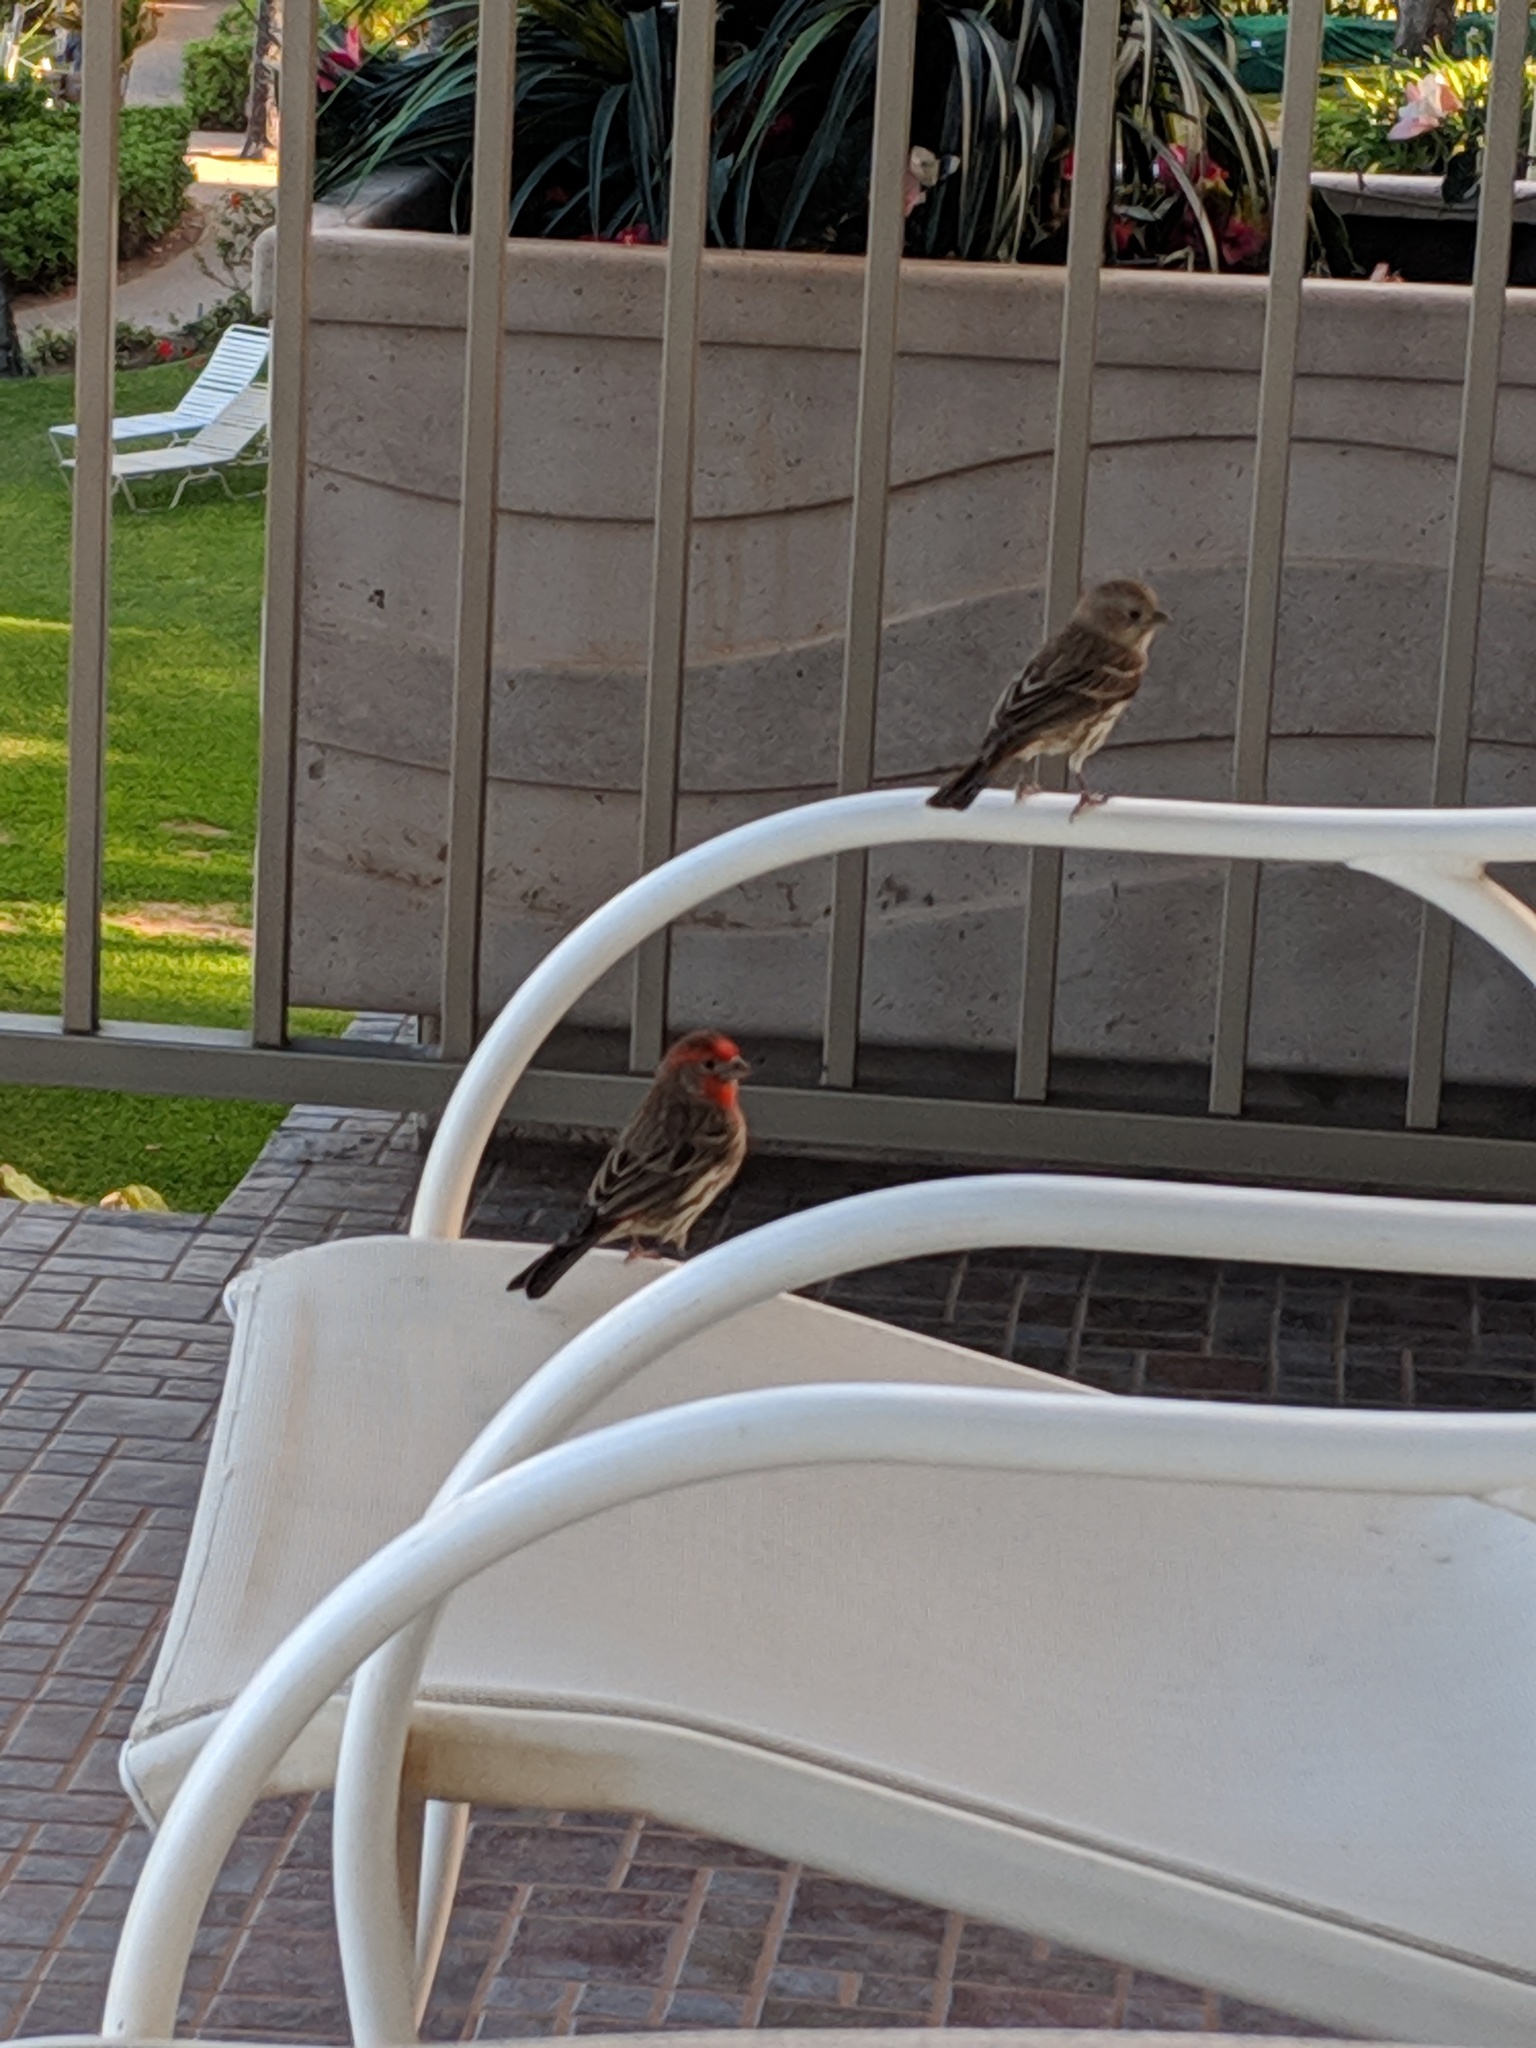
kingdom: Animalia
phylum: Chordata
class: Aves
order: Passeriformes
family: Fringillidae
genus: Haemorhous
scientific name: Haemorhous mexicanus
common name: House finch
